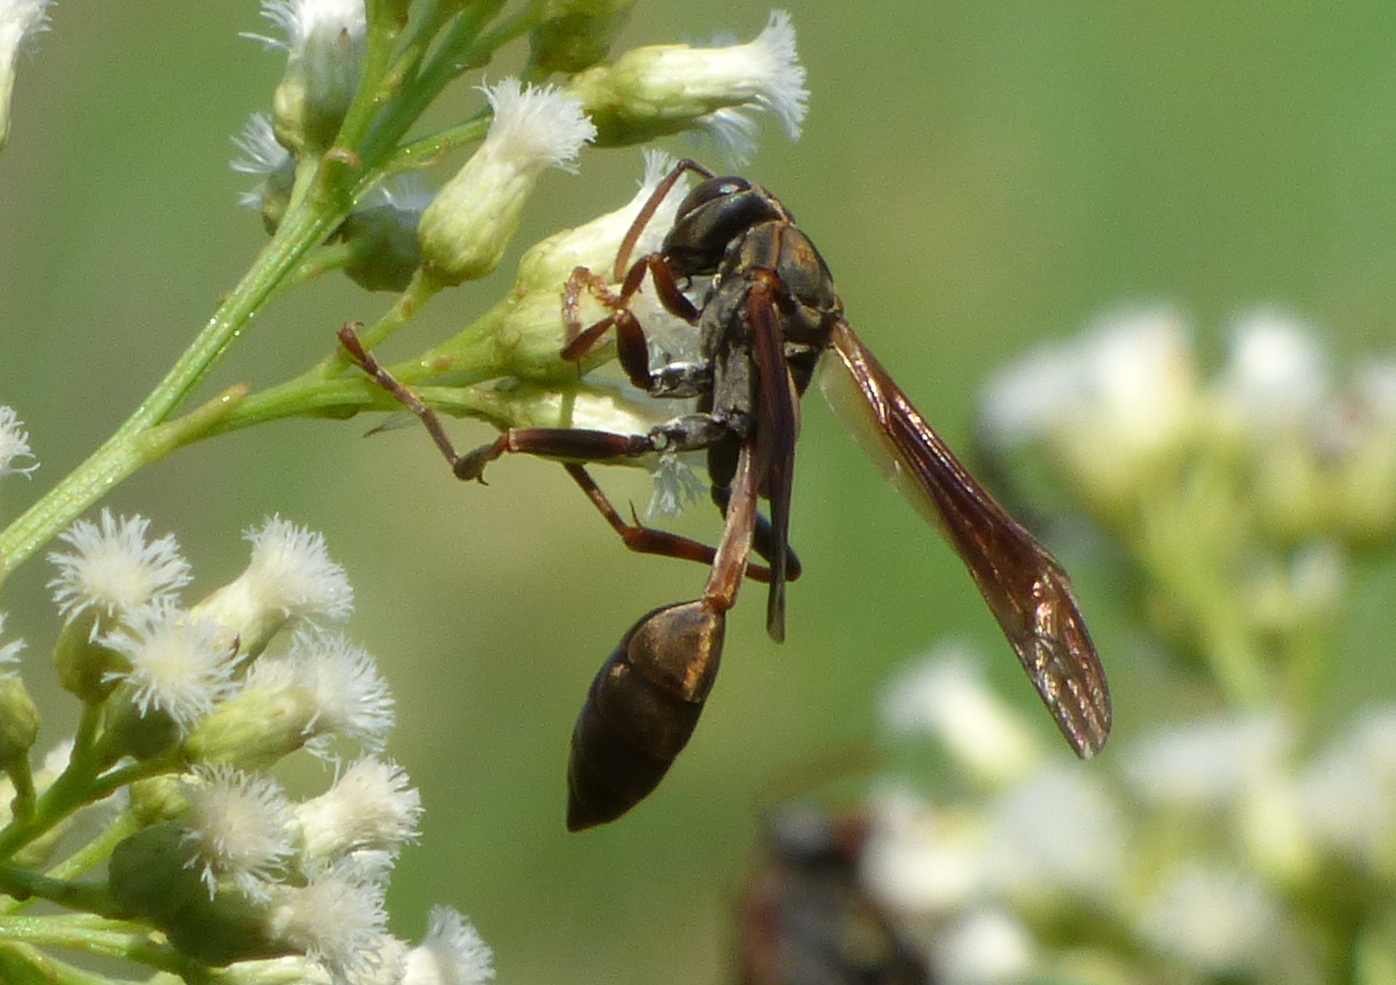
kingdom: Animalia
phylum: Arthropoda
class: Insecta
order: Hymenoptera
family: Vespidae
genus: Mischocyttarus
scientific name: Mischocyttarus drewseni
